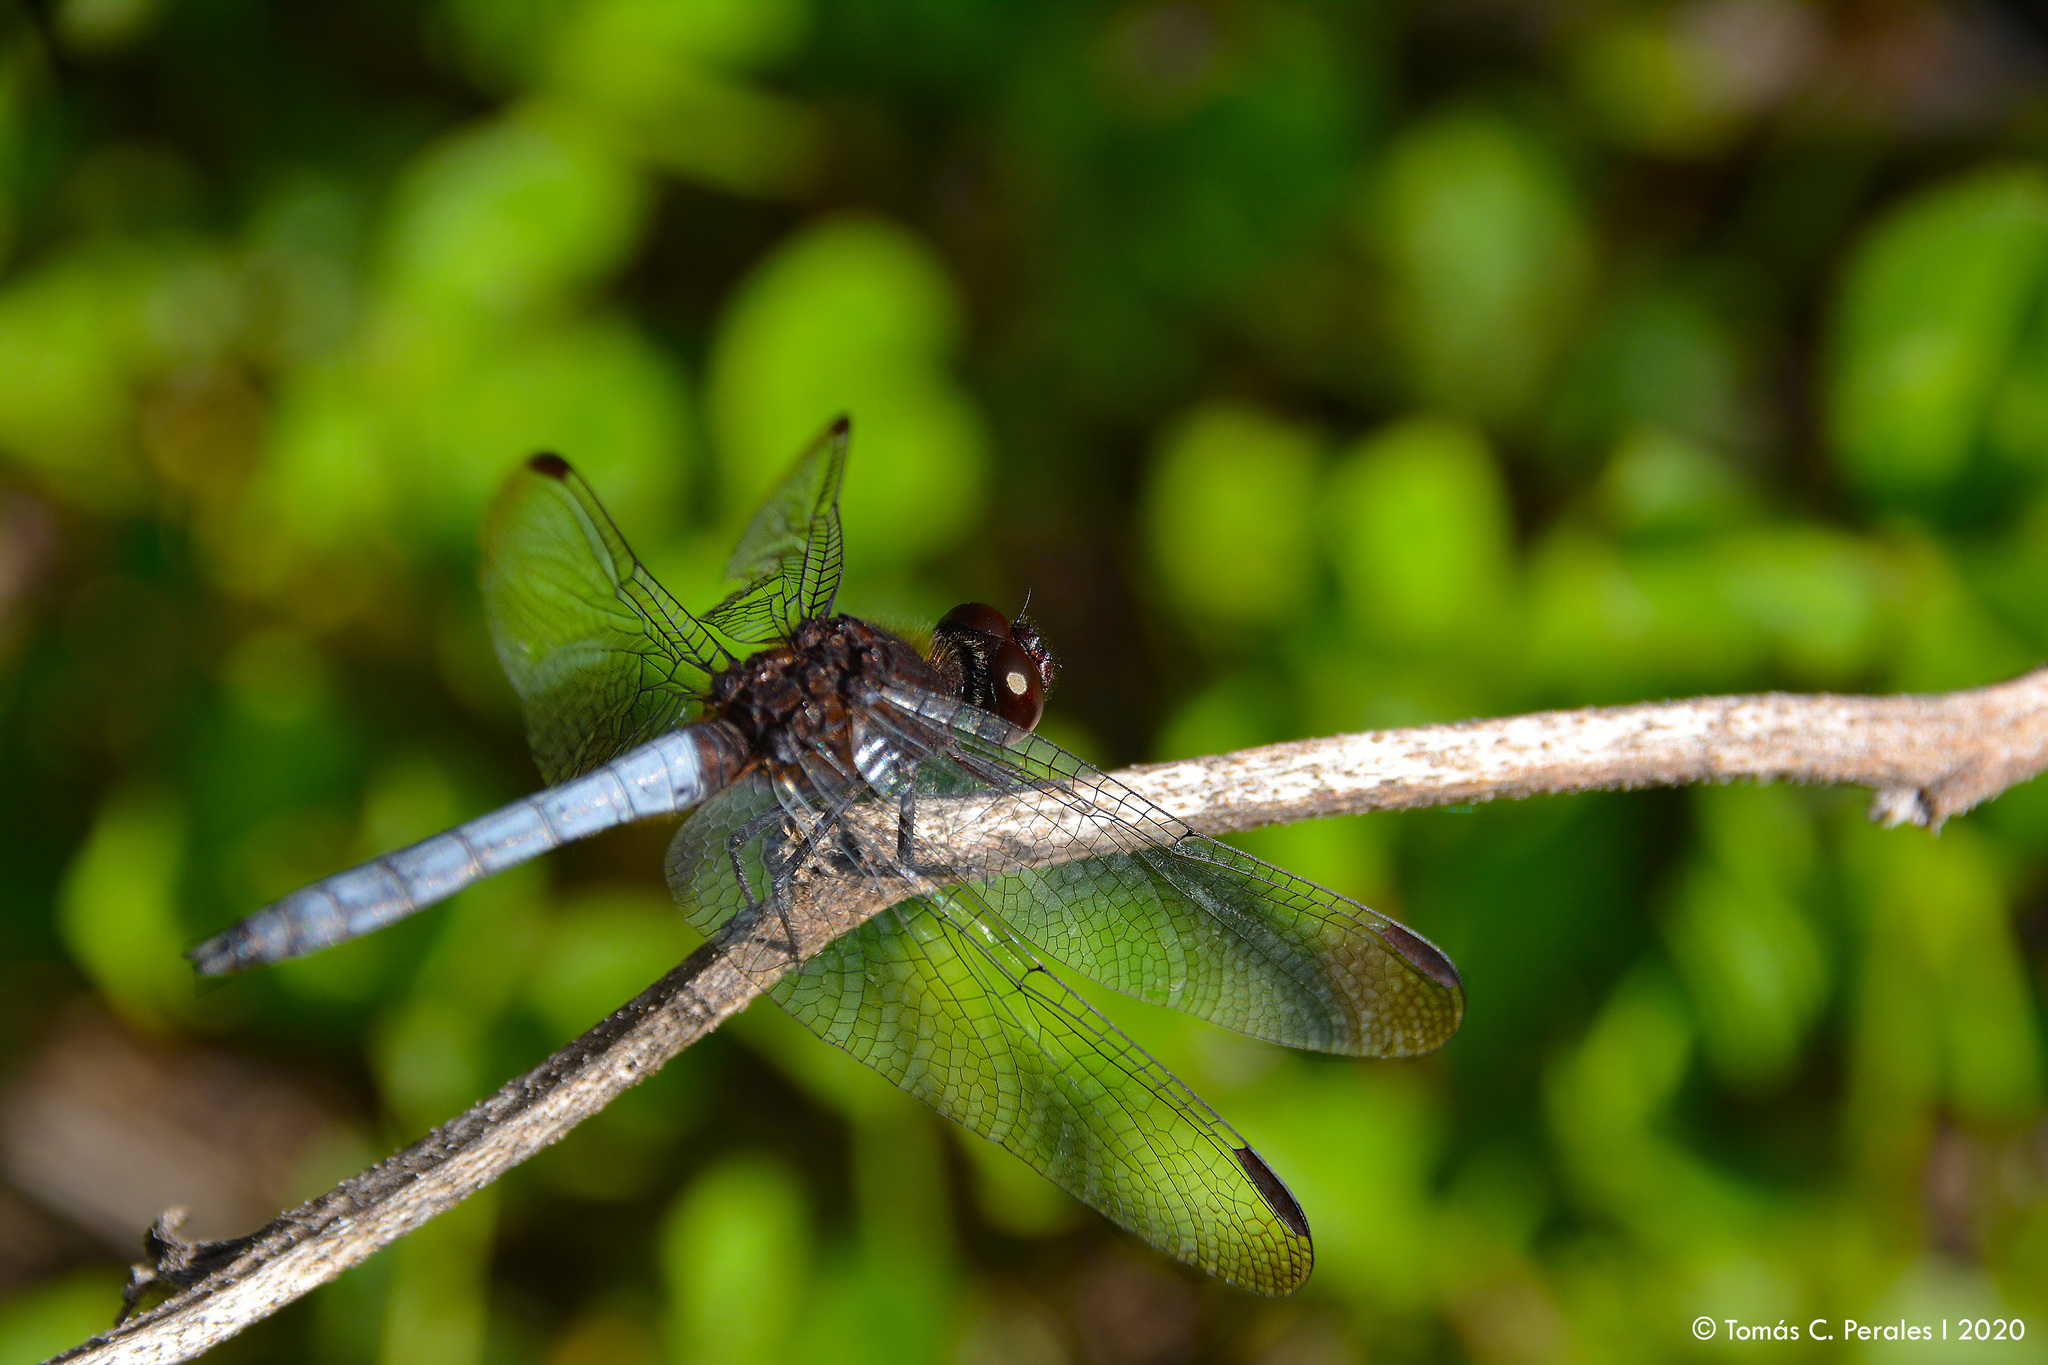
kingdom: Animalia
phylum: Arthropoda
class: Insecta
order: Odonata
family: Libellulidae
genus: Erythrodiplax
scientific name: Erythrodiplax connata
